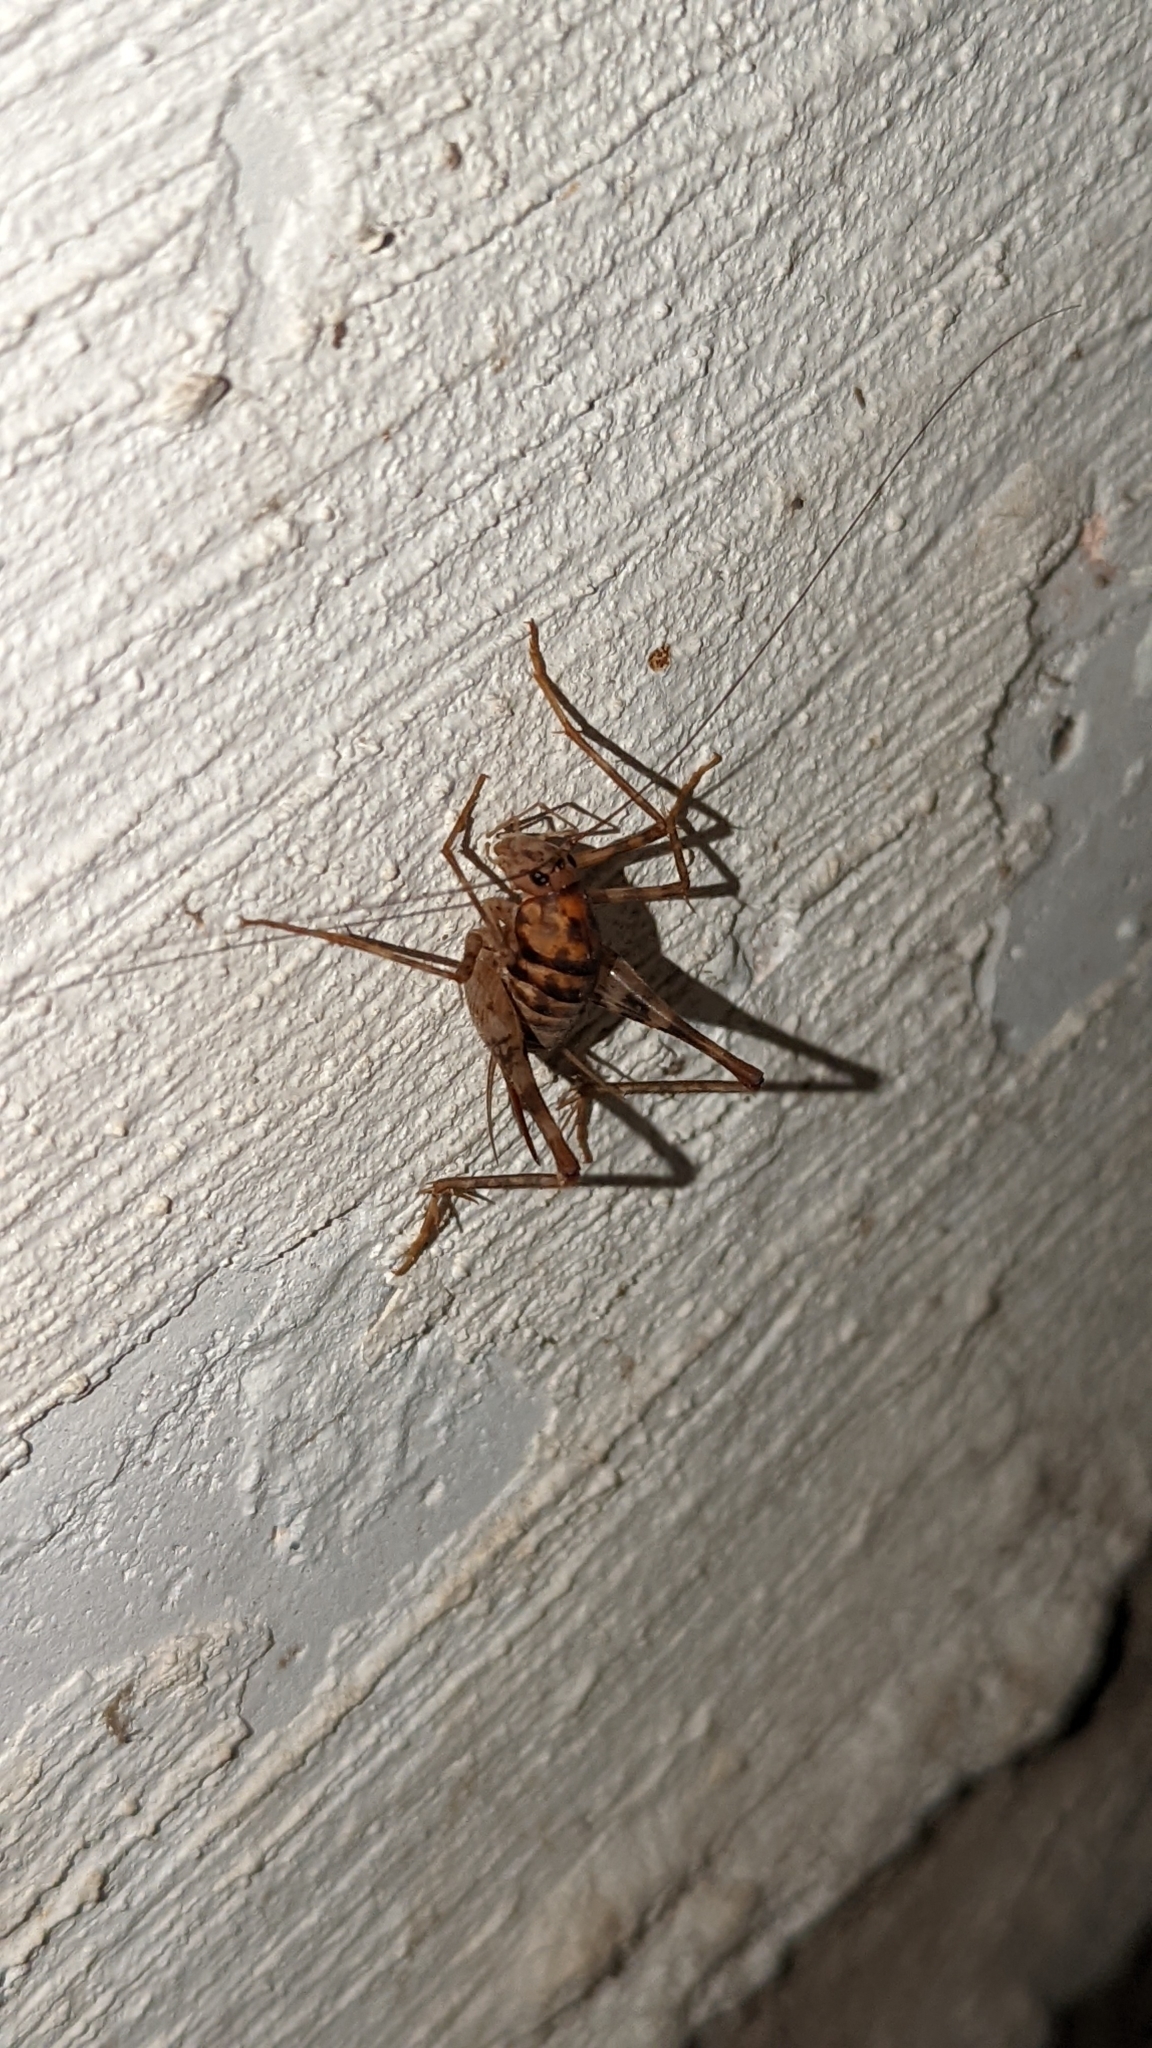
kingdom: Animalia
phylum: Arthropoda
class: Insecta
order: Orthoptera
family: Rhaphidophoridae
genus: Tachycines
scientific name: Tachycines asynamorus
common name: Greenhouse camel cricket
